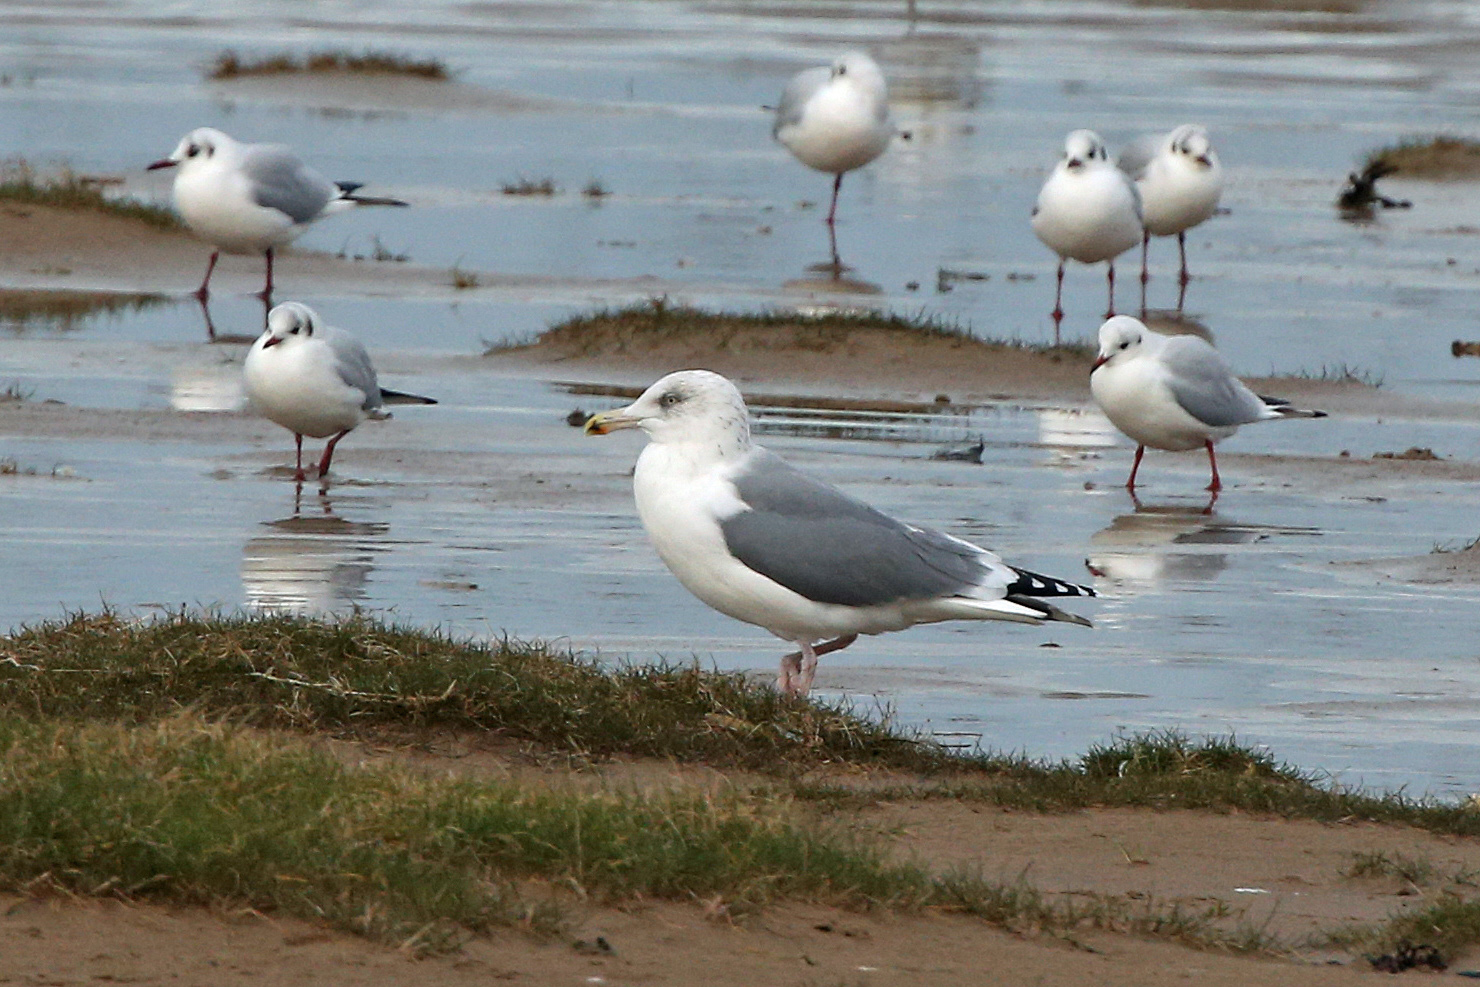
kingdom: Animalia
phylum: Chordata
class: Aves
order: Charadriiformes
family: Laridae
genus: Larus
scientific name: Larus argentatus
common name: Herring gull
